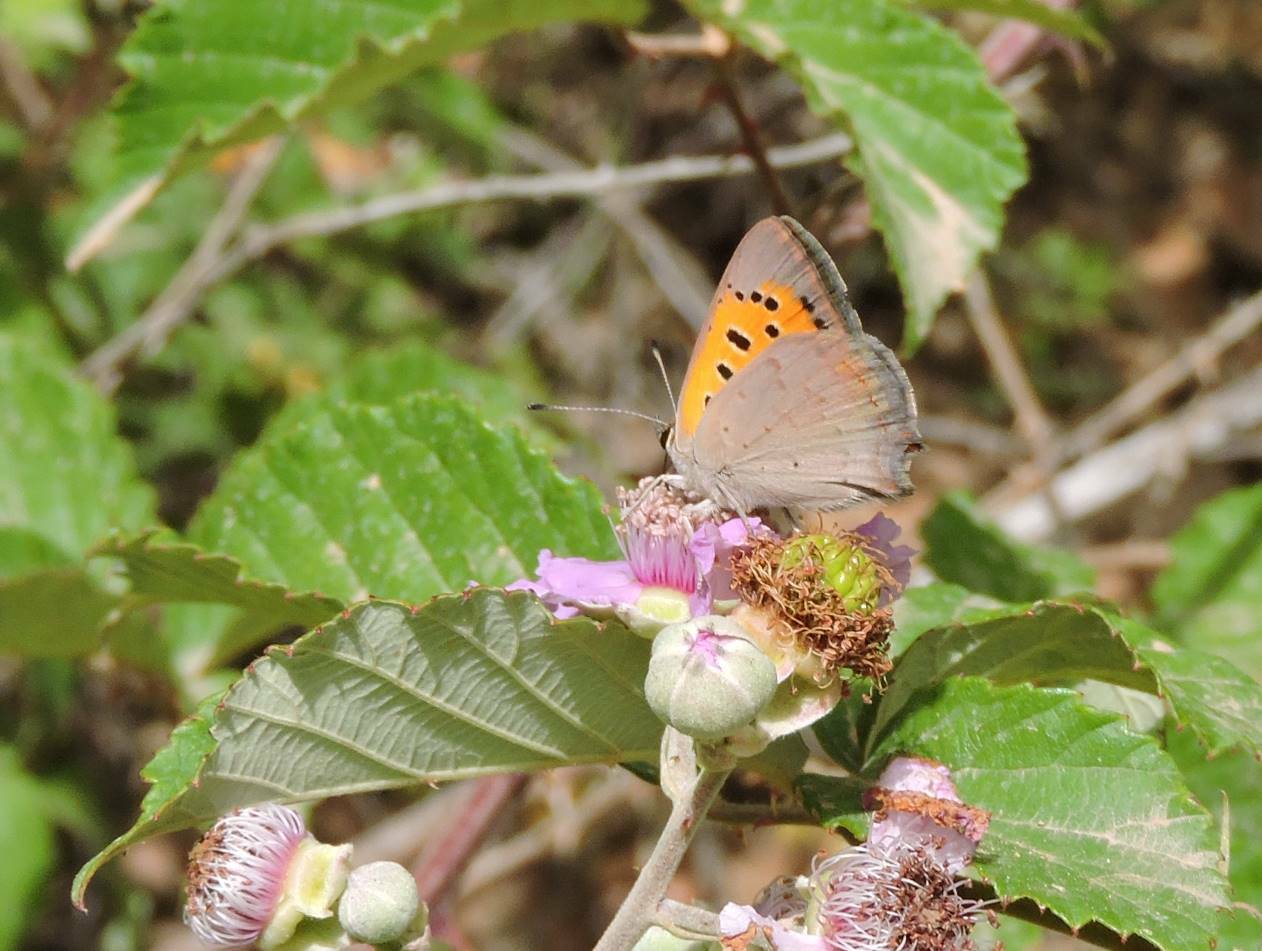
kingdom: Animalia
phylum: Arthropoda
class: Insecta
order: Lepidoptera
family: Lycaenidae
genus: Lycaena
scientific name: Lycaena phlaeas
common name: Small copper
